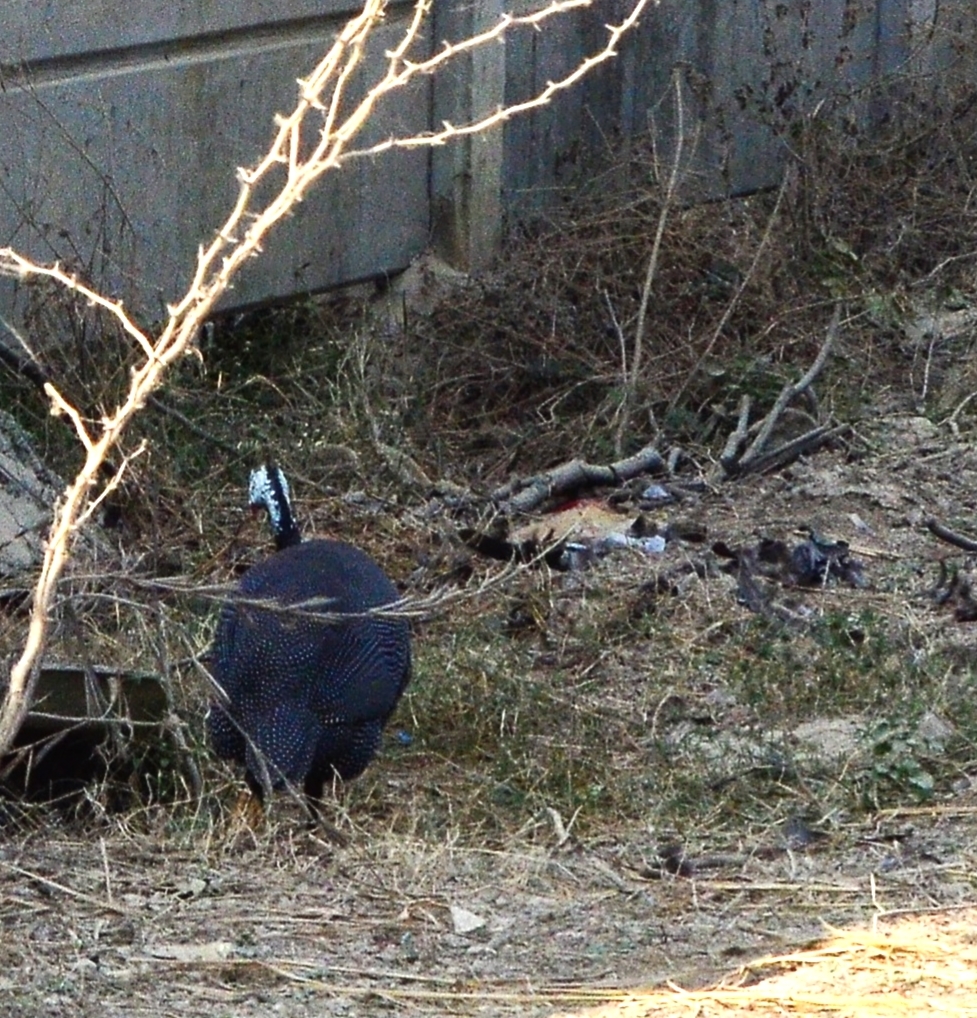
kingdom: Animalia
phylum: Chordata
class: Aves
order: Galliformes
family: Numididae
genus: Numida
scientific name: Numida meleagris
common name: Helmeted guineafowl
